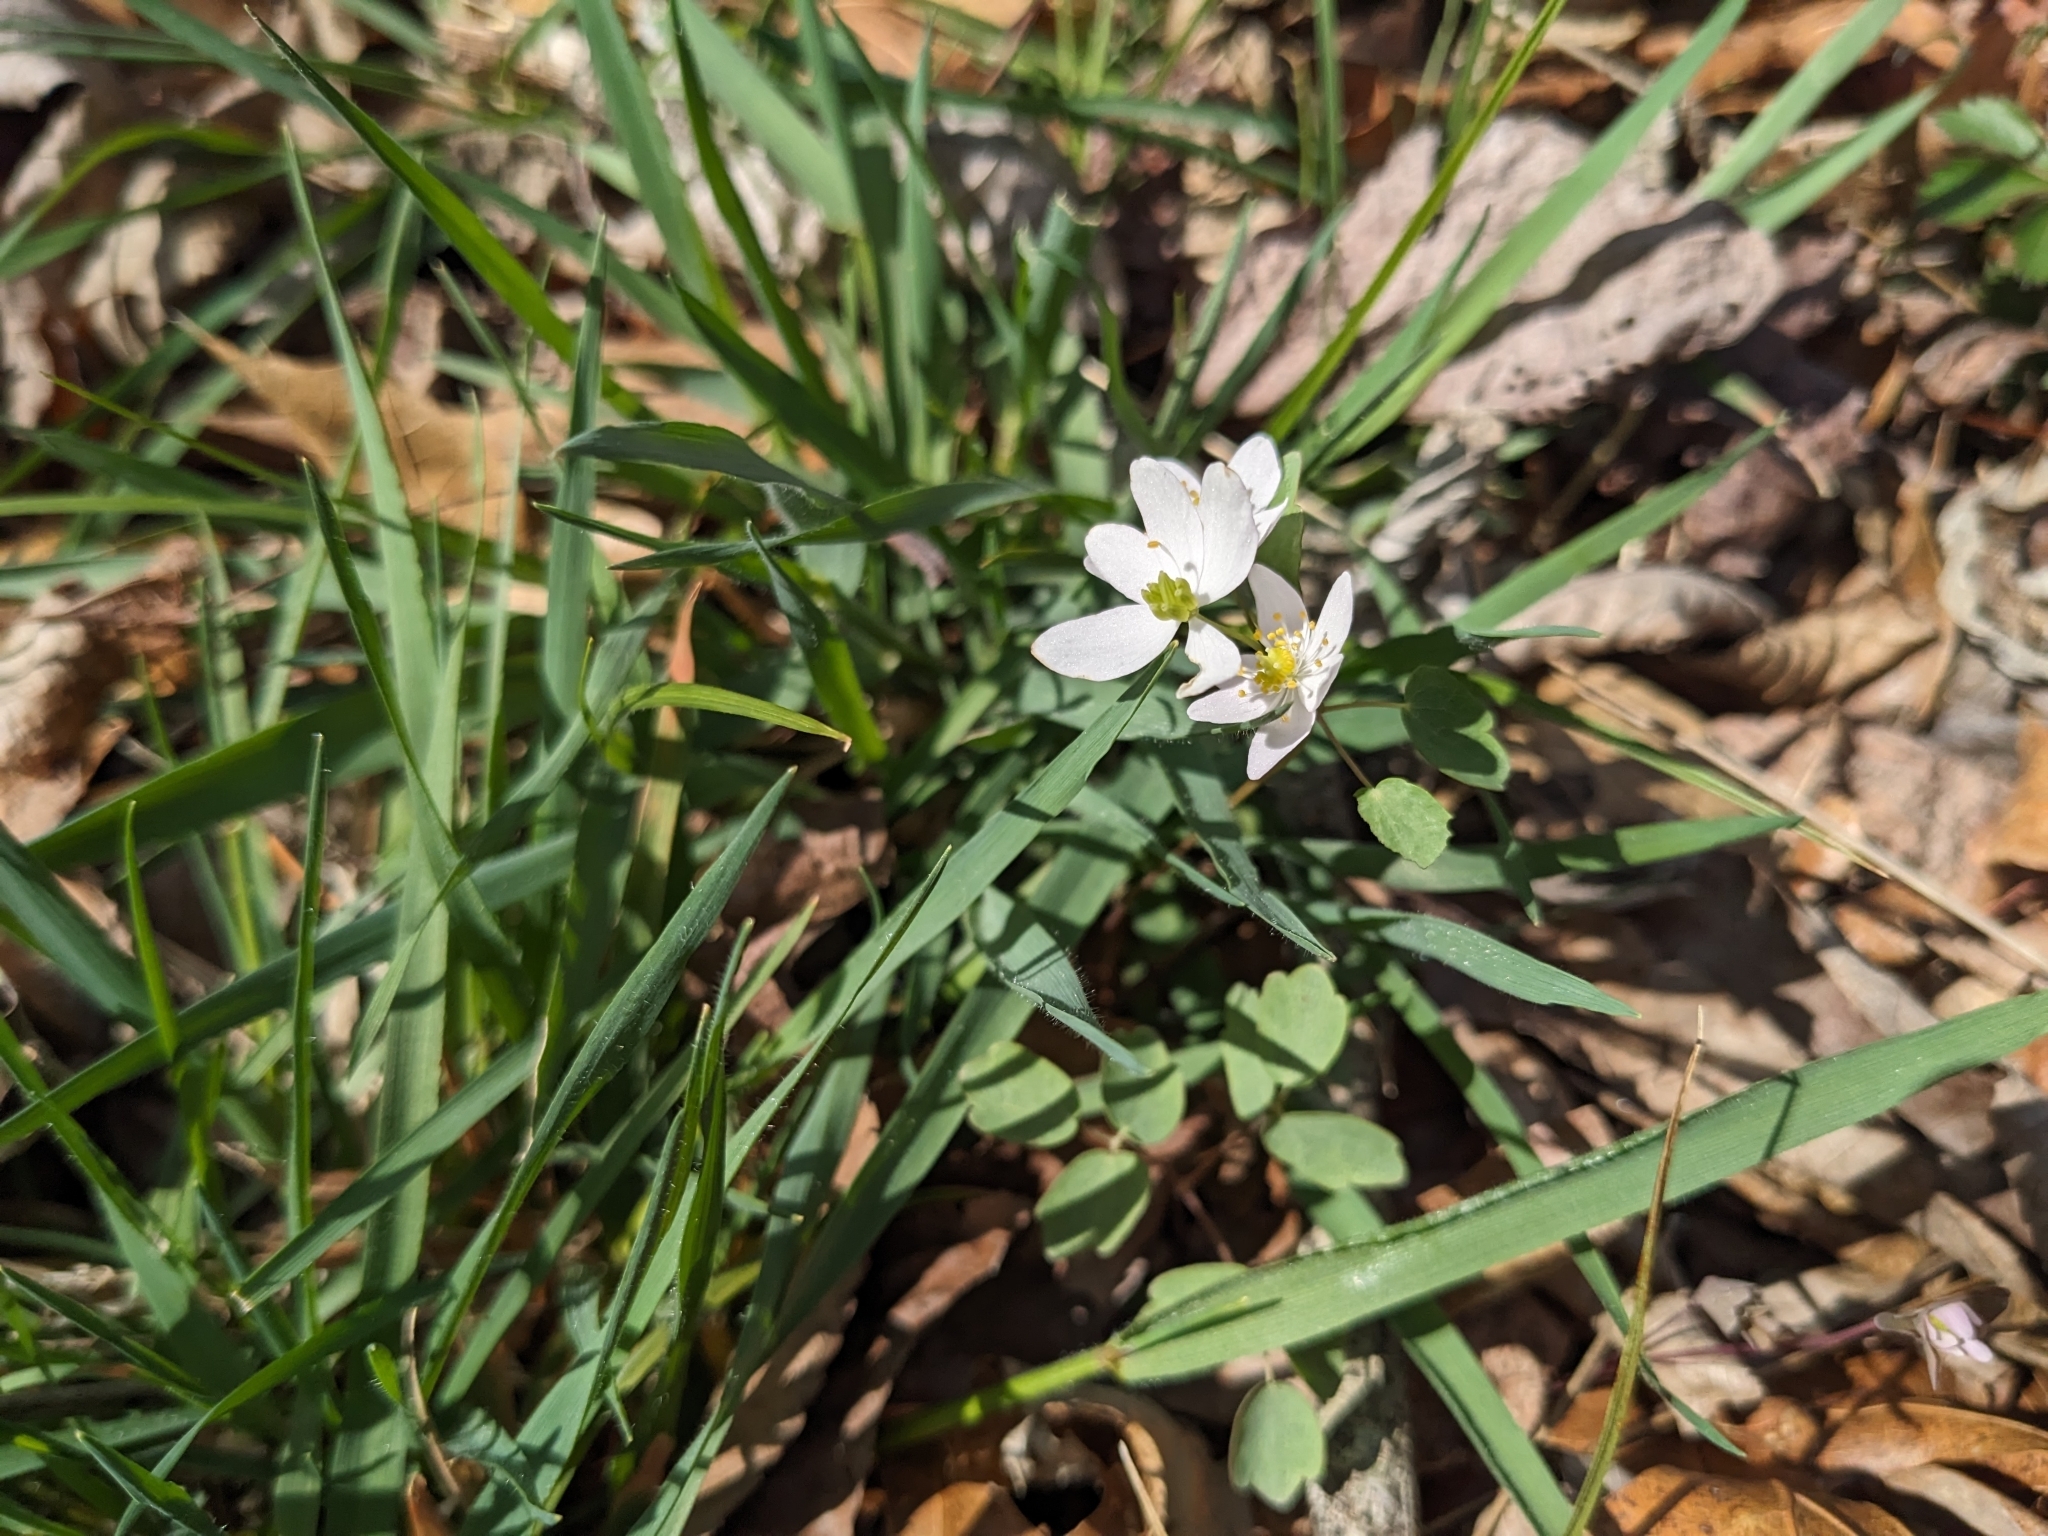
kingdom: Plantae
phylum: Tracheophyta
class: Magnoliopsida
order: Ranunculales
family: Ranunculaceae
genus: Thalictrum
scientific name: Thalictrum thalictroides
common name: Rue-anemone
